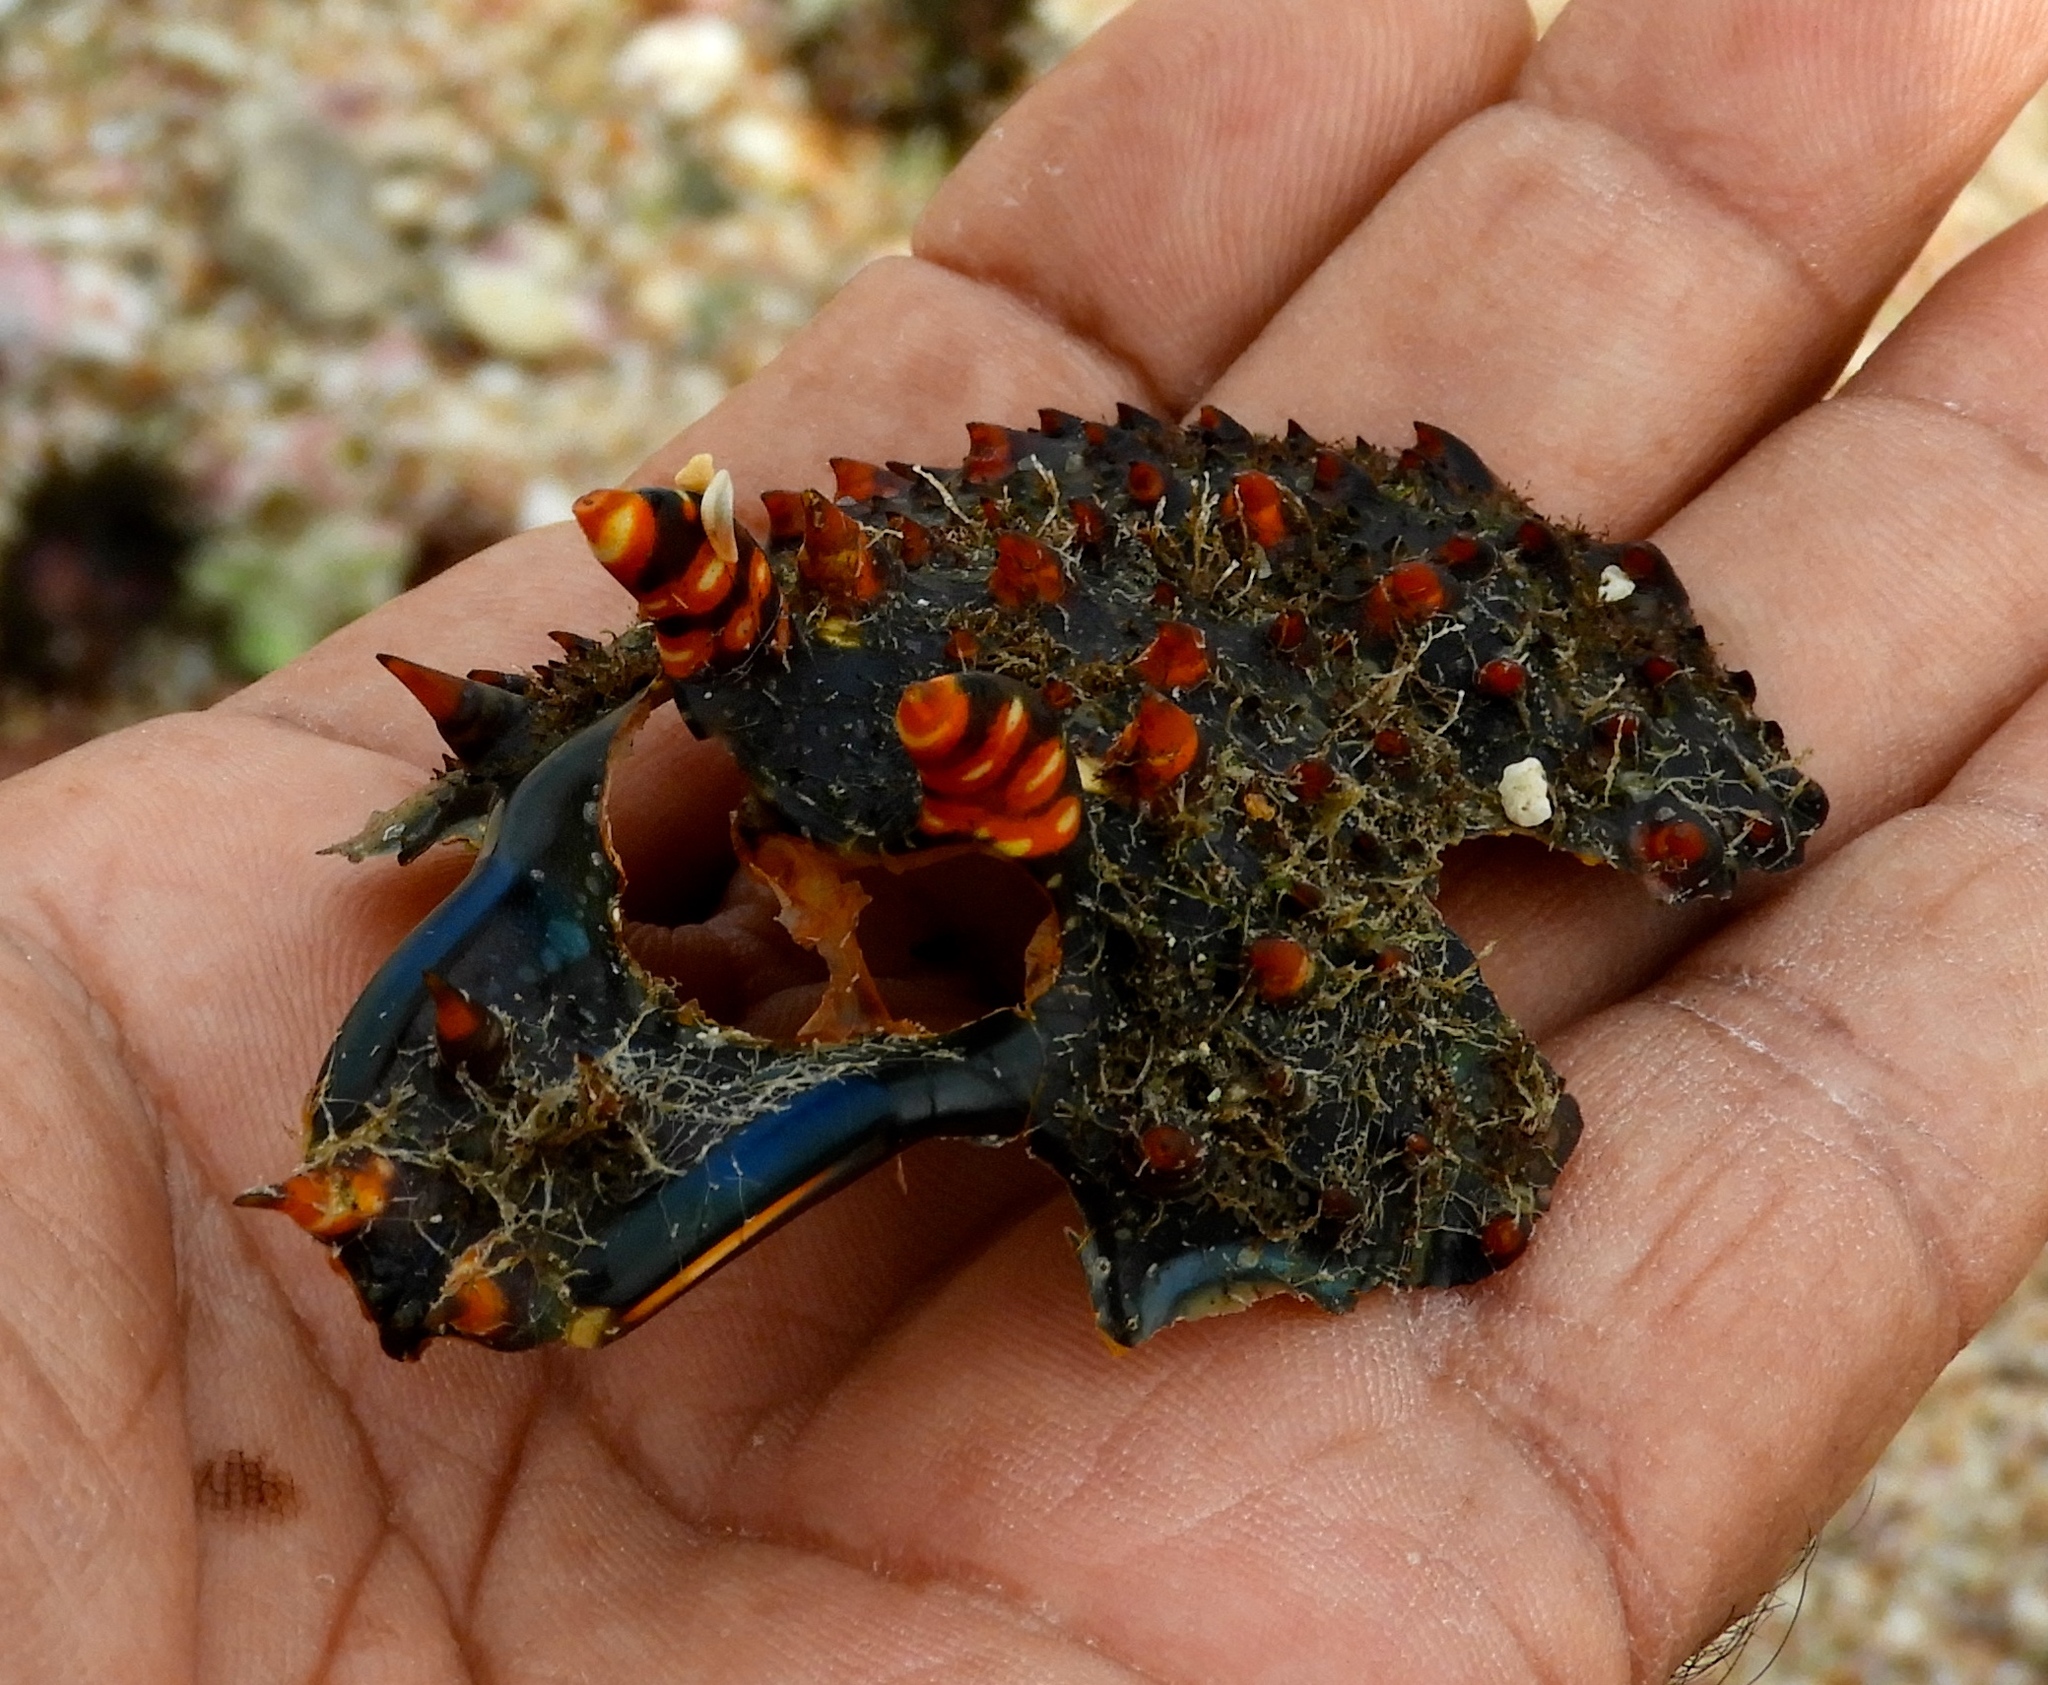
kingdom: Animalia
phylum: Arthropoda
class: Malacostraca
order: Decapoda
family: Palinuridae
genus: Panulirus
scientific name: Panulirus inflatus
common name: Blue spiny lobster
